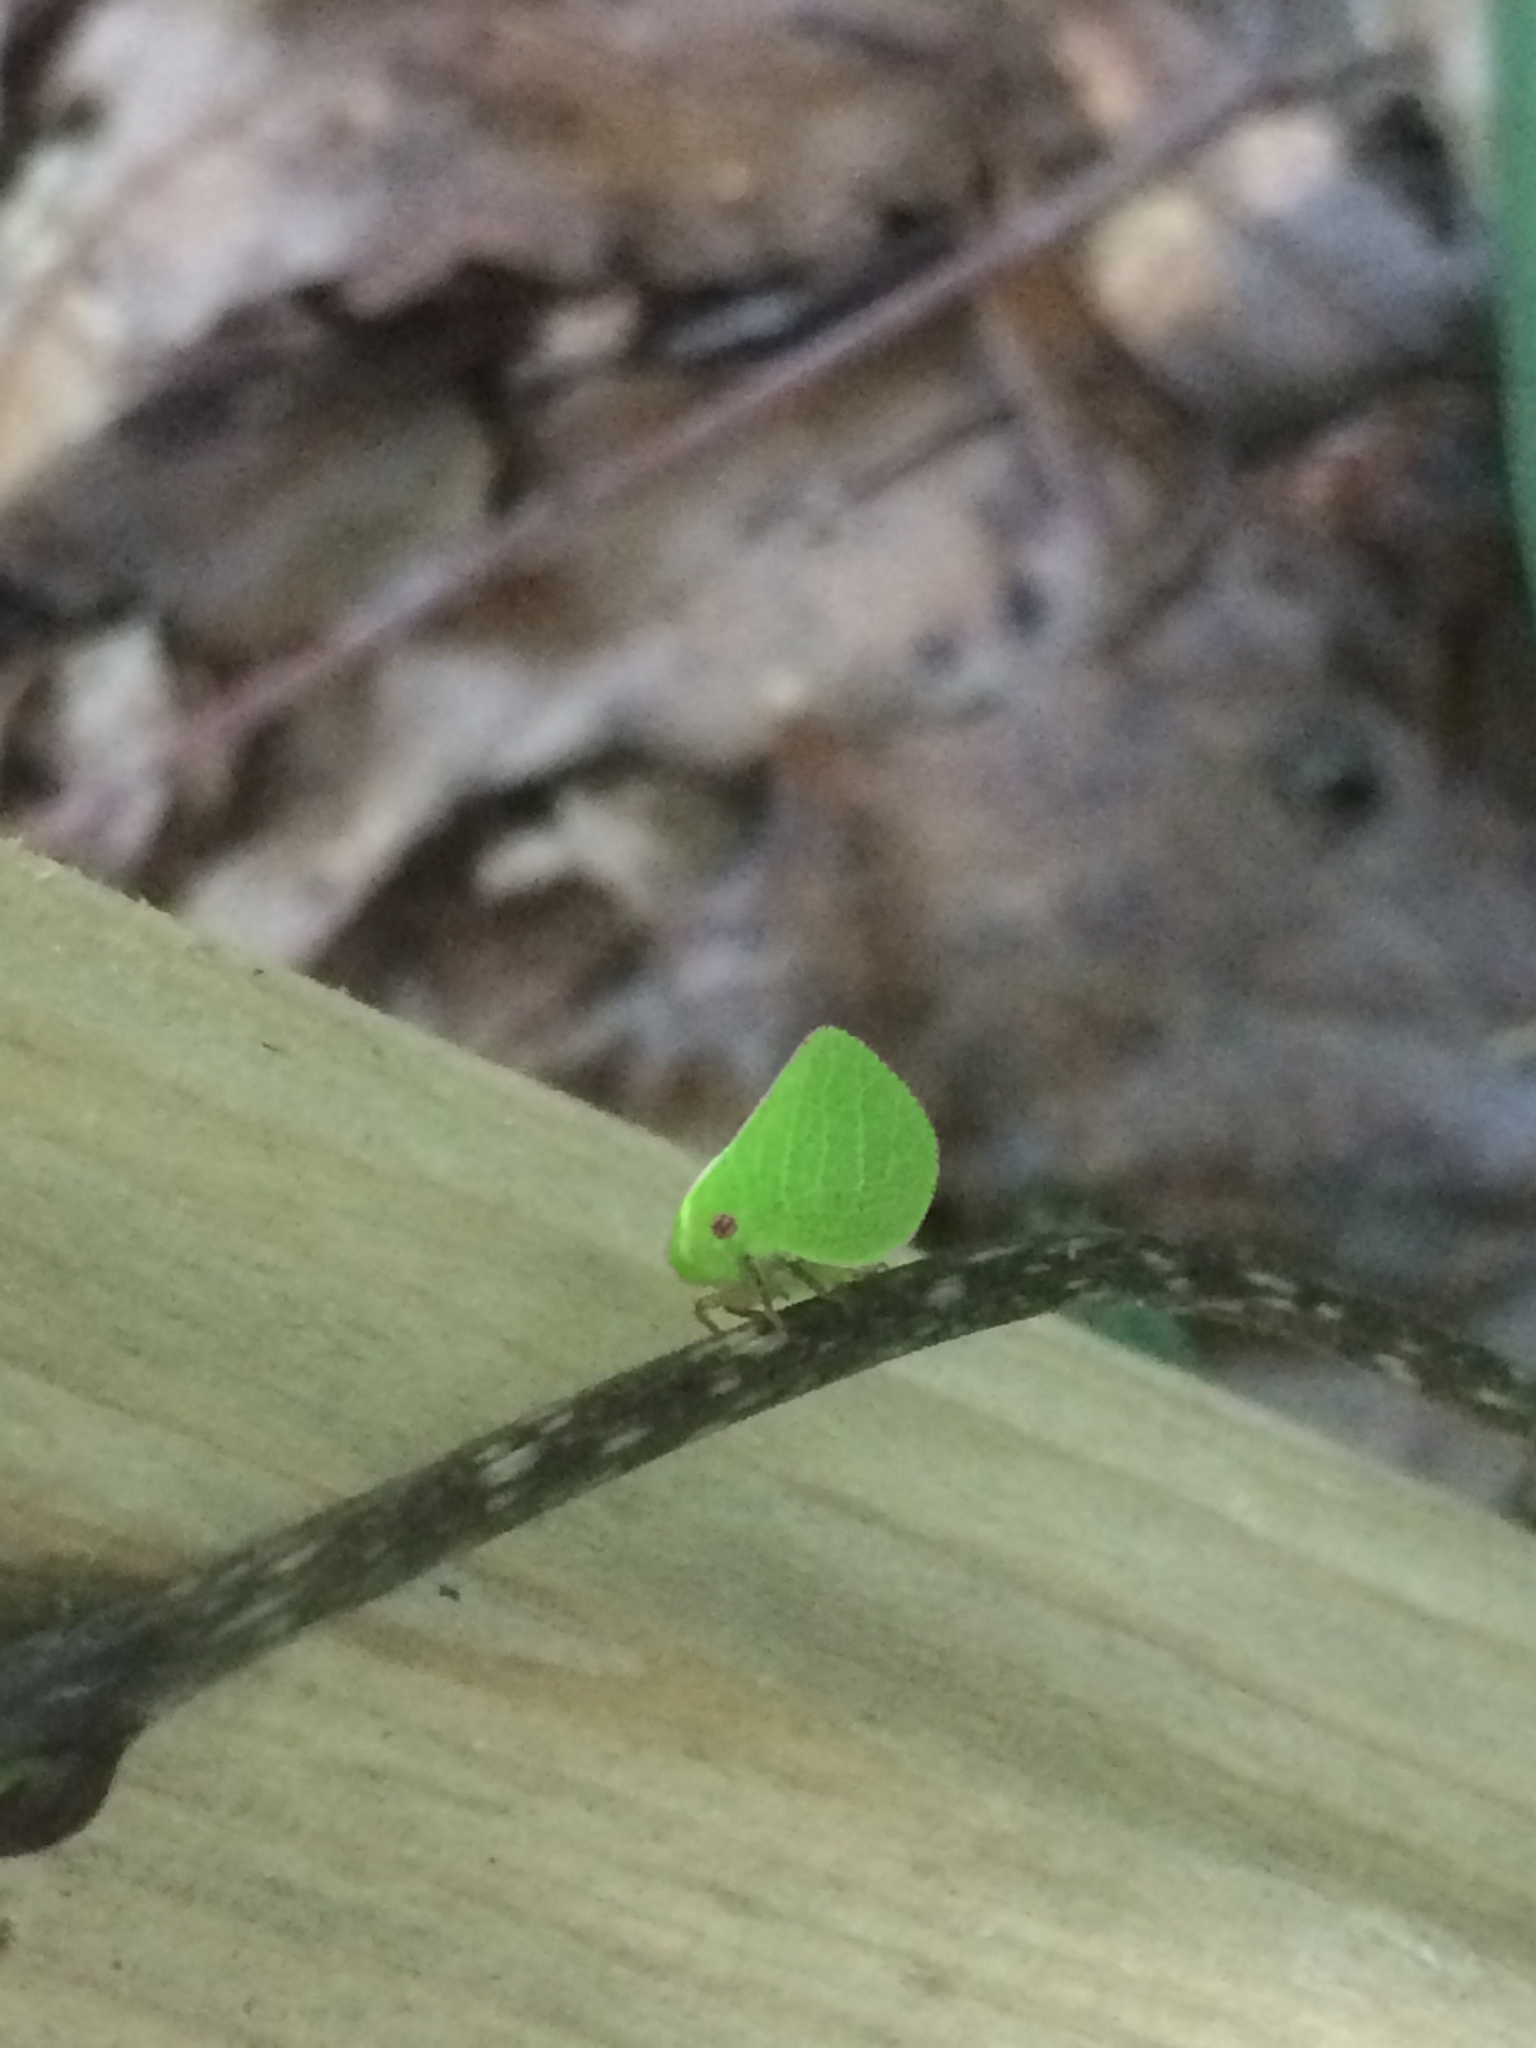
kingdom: Animalia
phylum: Arthropoda
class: Insecta
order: Hemiptera
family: Acanaloniidae
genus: Acanalonia
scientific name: Acanalonia servillei
